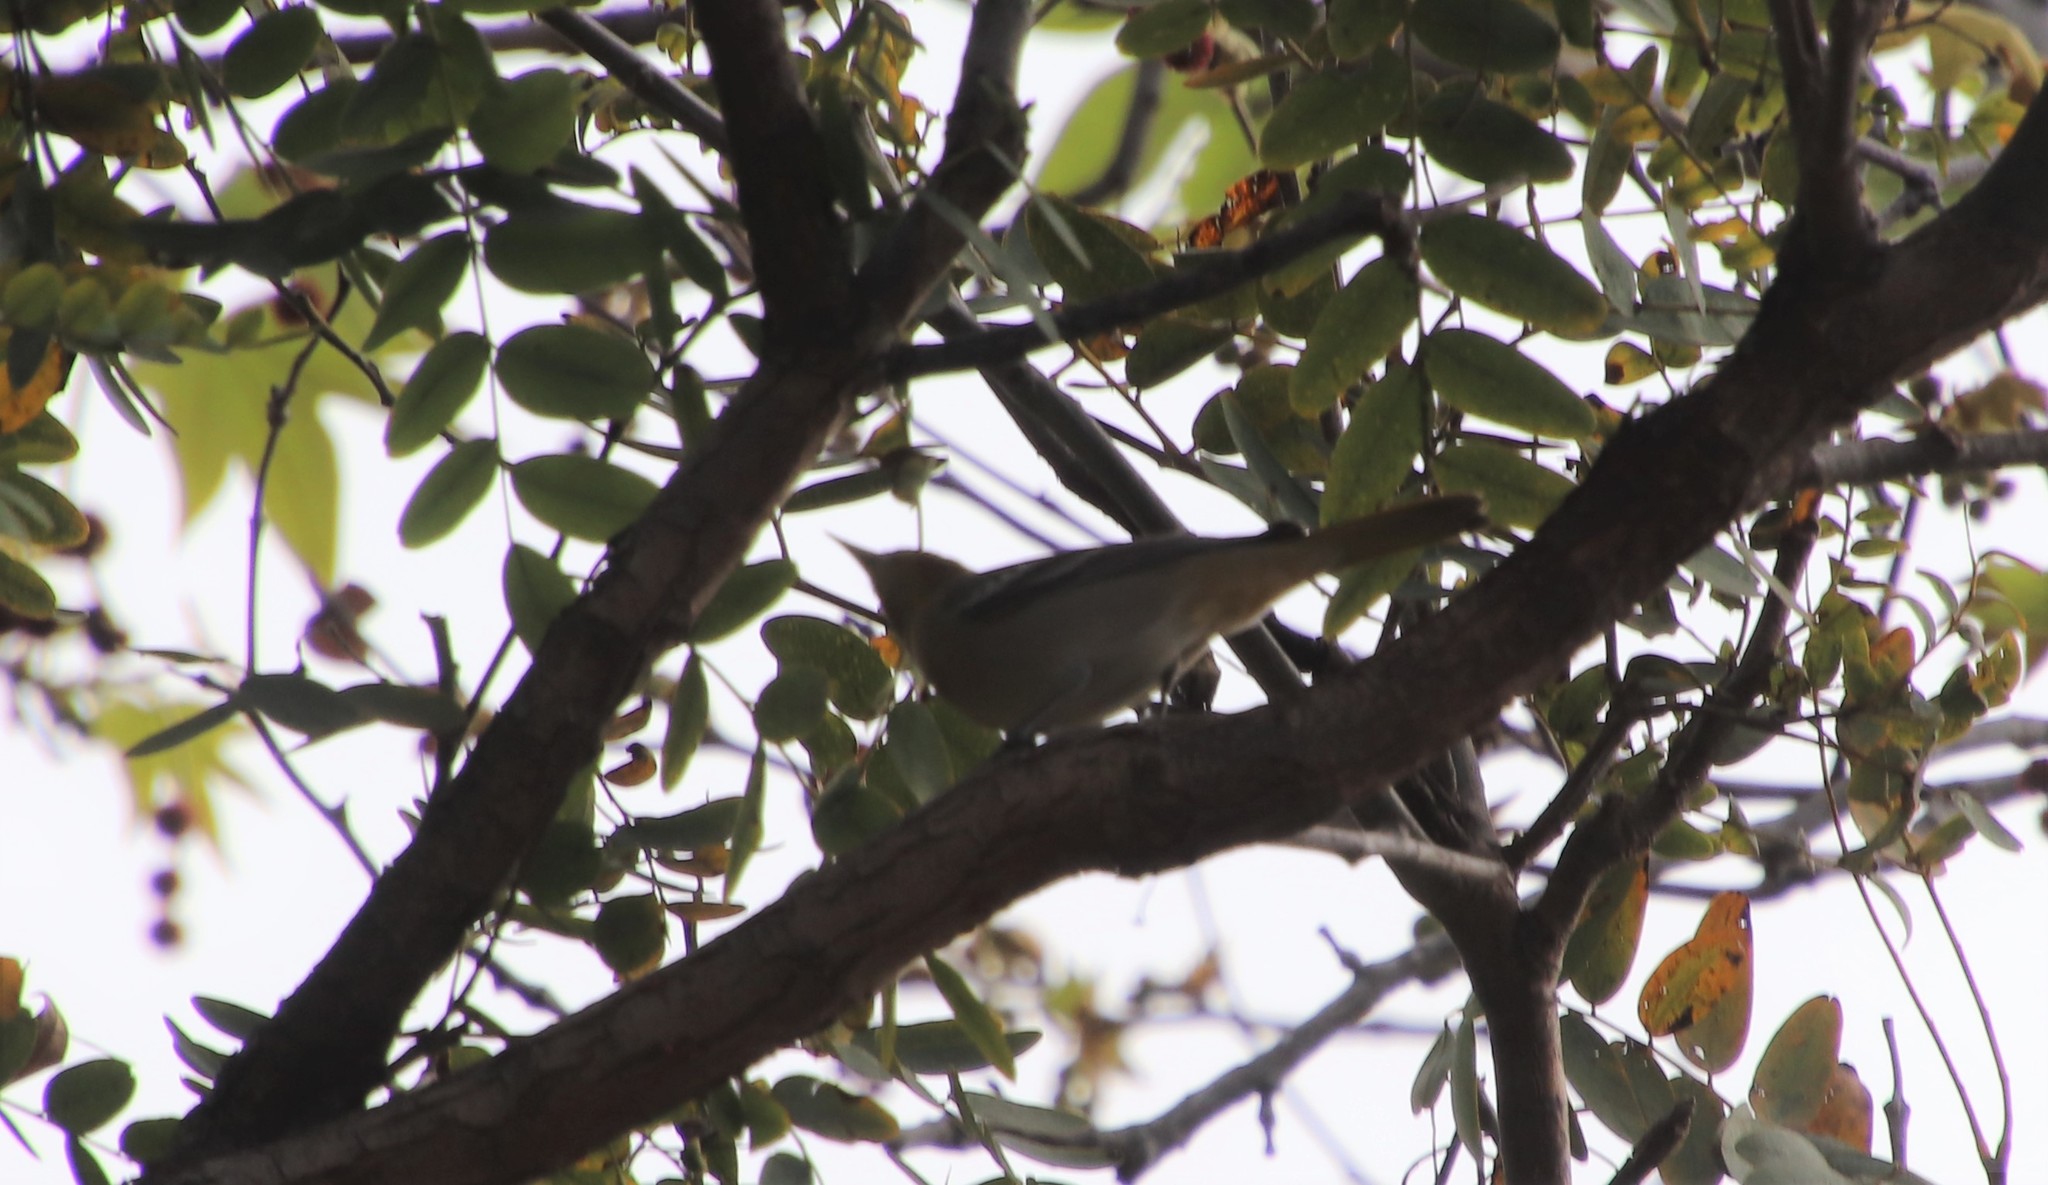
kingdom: Animalia
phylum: Chordata
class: Aves
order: Passeriformes
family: Icteridae
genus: Icterus
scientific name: Icterus bullockii
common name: Bullock's oriole
